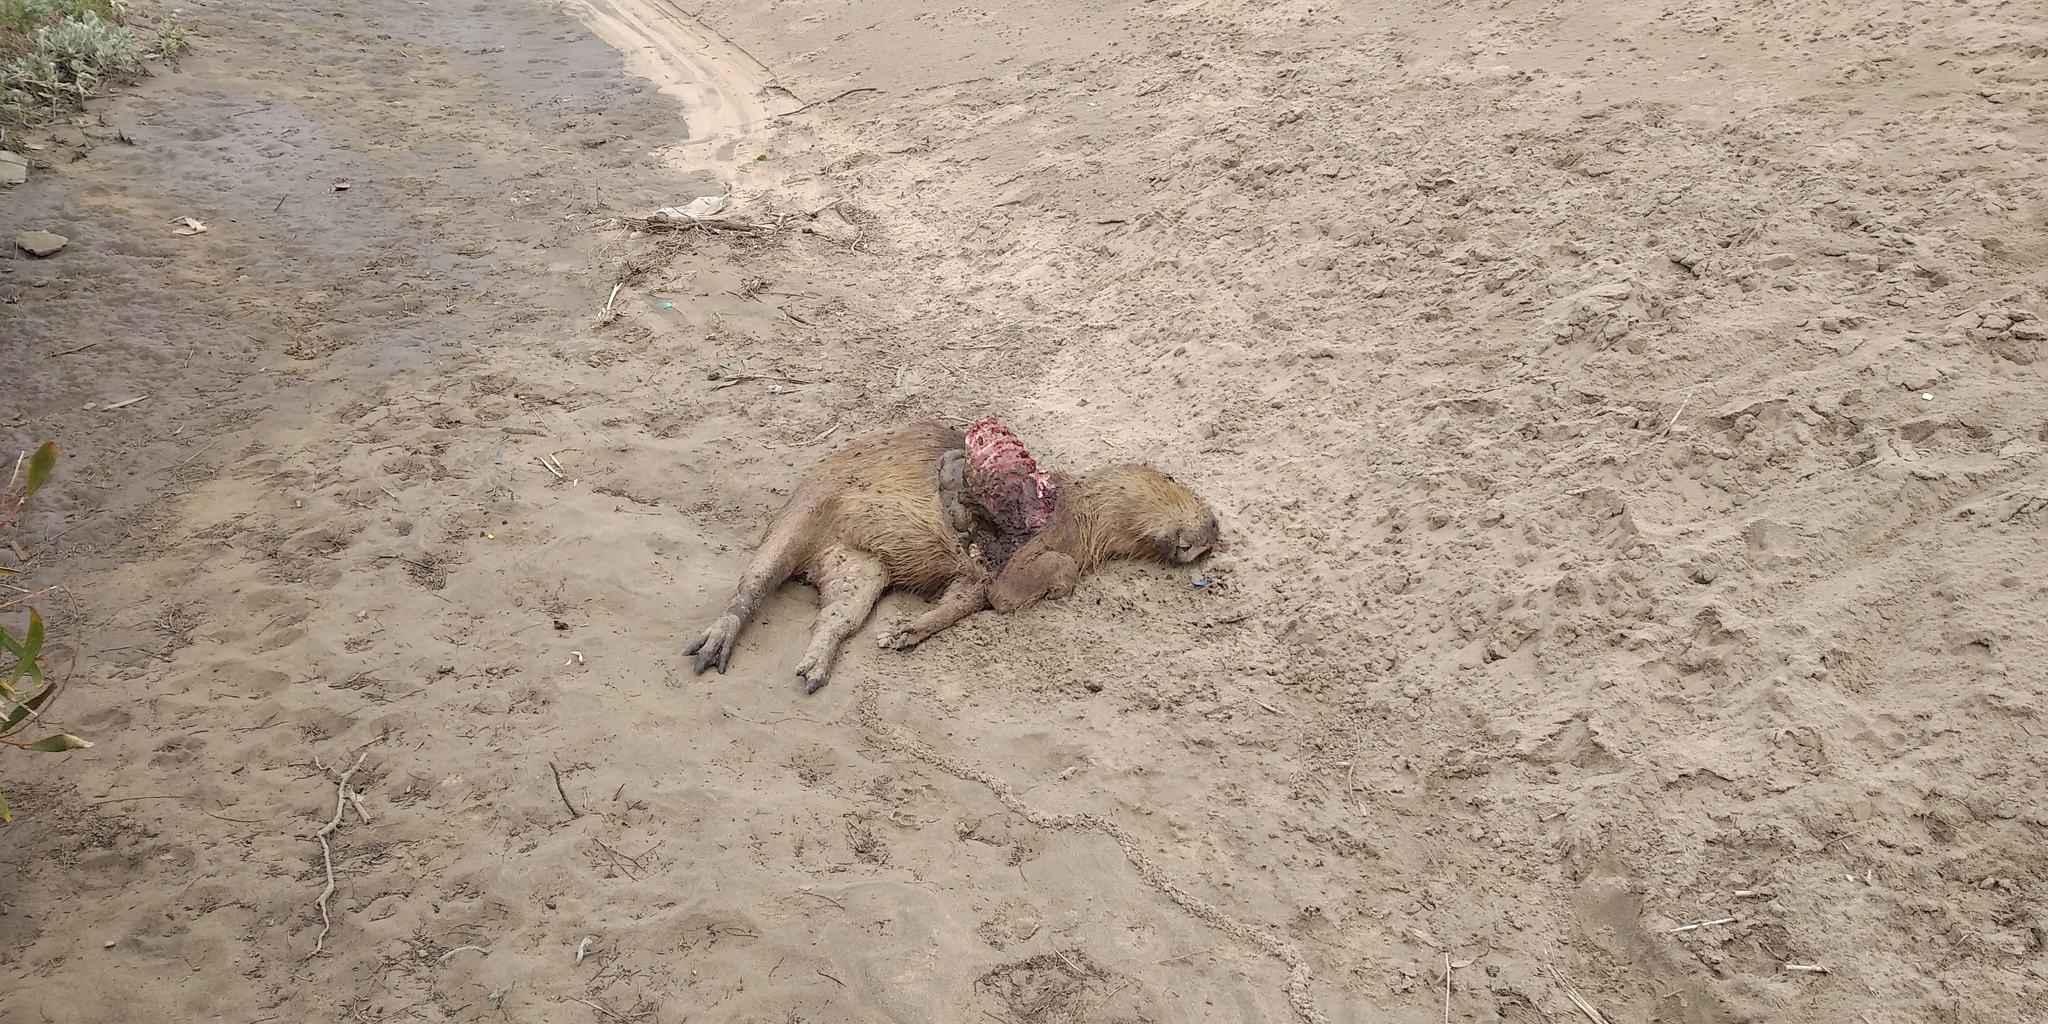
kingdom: Animalia
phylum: Chordata
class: Mammalia
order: Rodentia
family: Caviidae
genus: Hydrochoerus
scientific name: Hydrochoerus hydrochaeris
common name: Capybara
